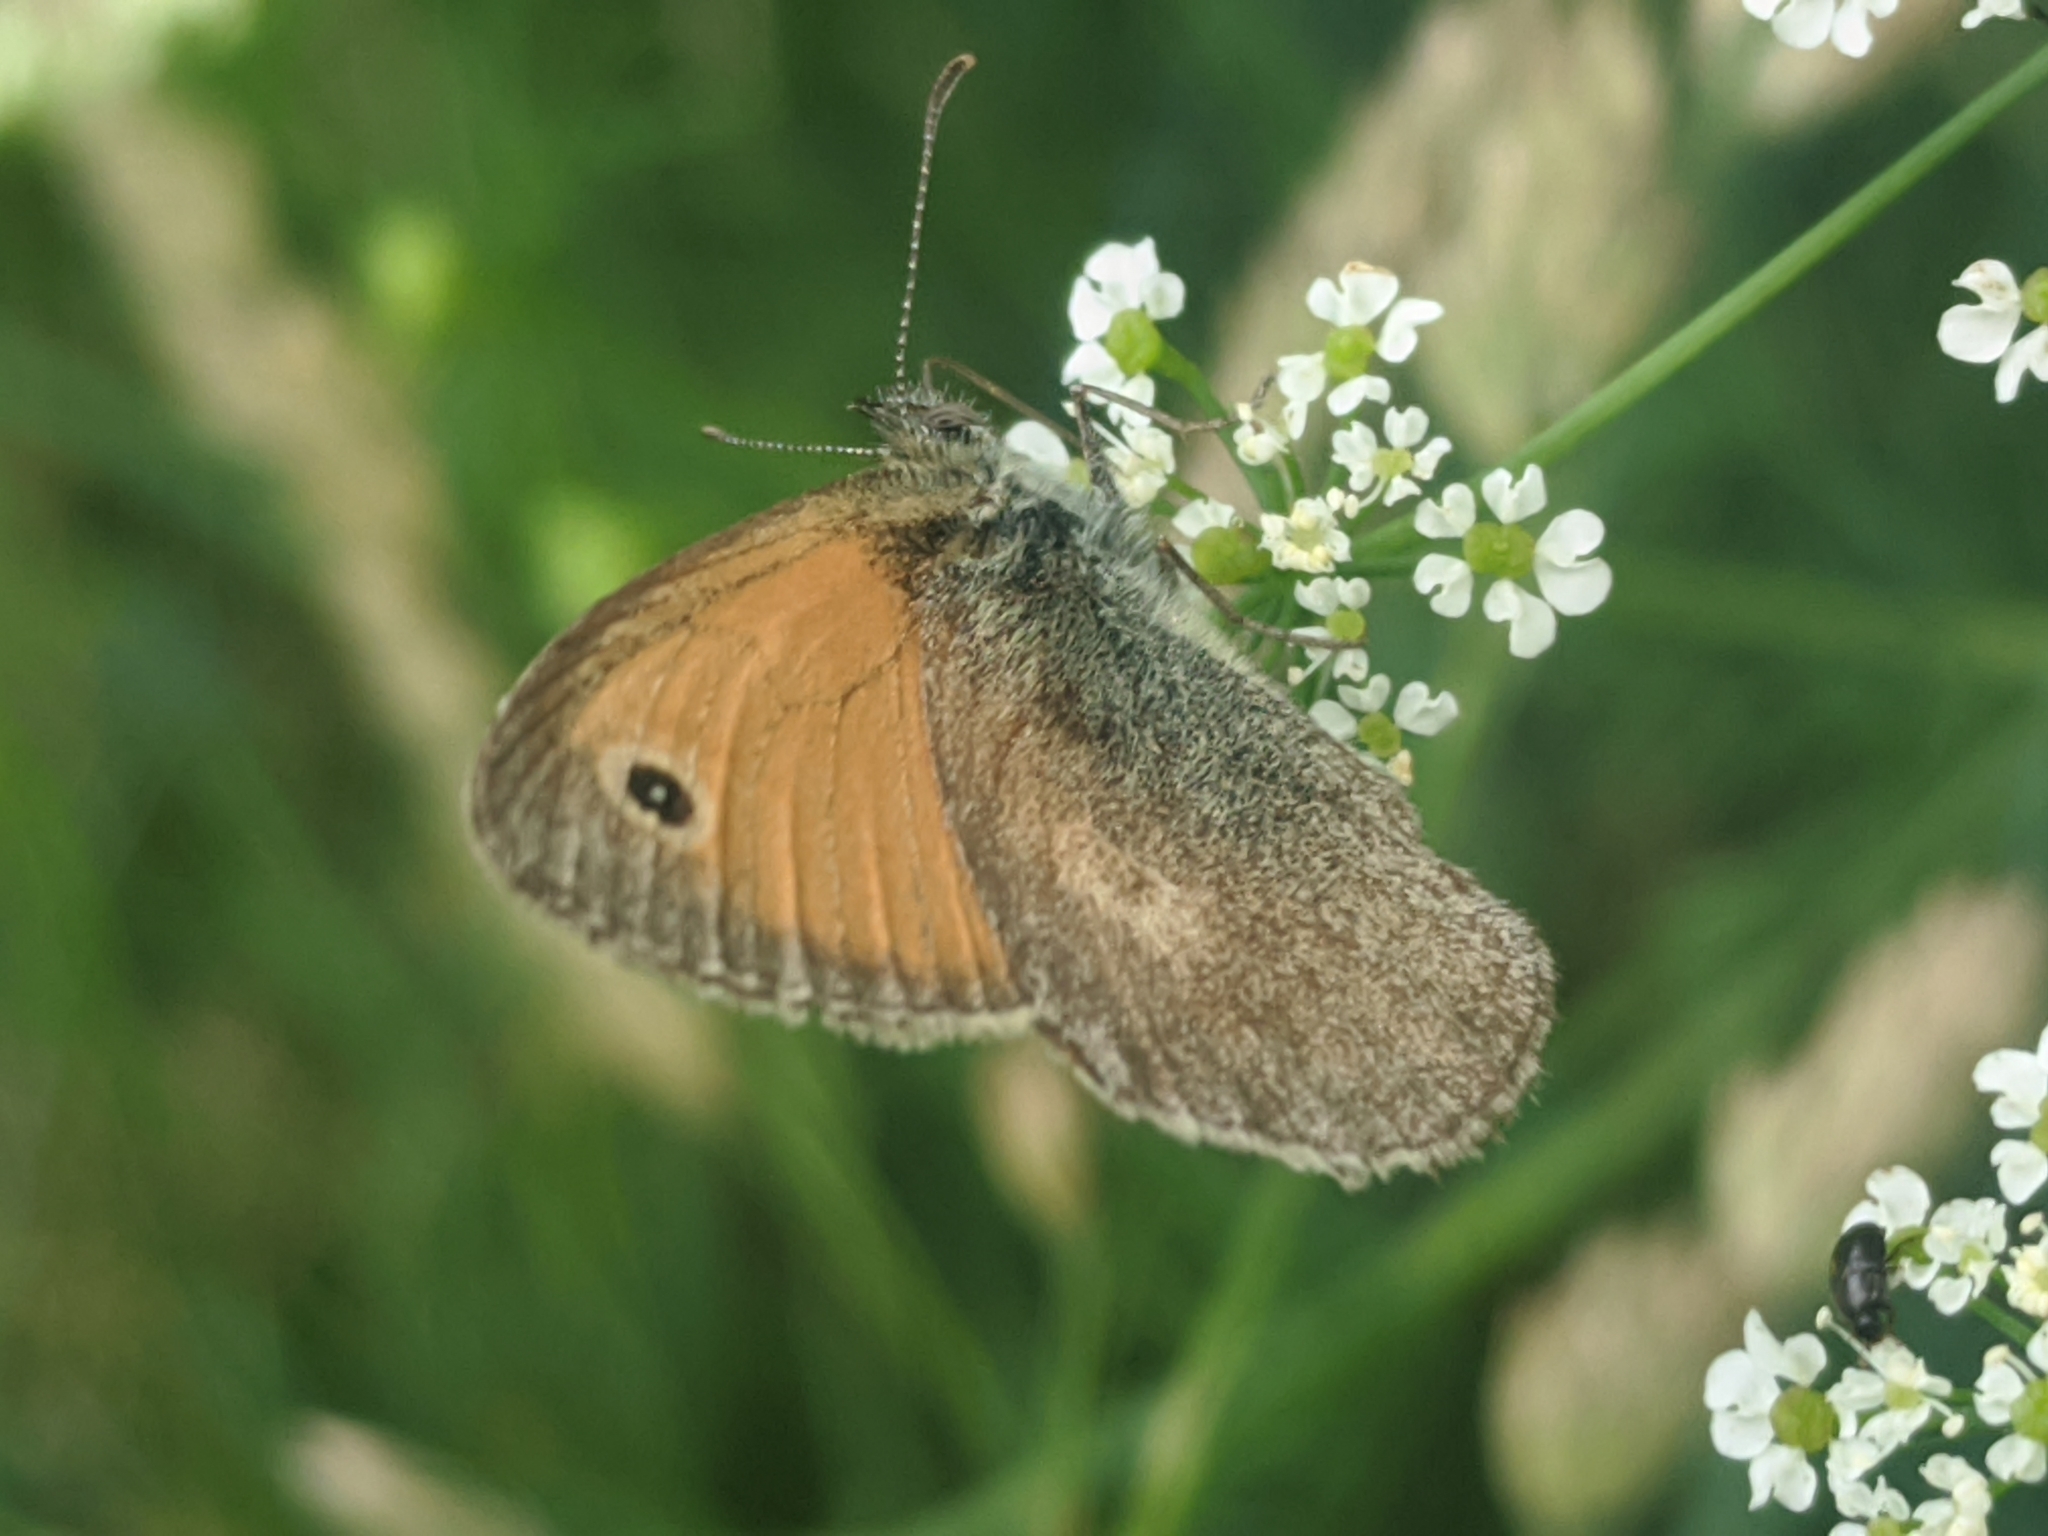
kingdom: Animalia
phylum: Arthropoda
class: Insecta
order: Lepidoptera
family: Nymphalidae
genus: Coenonympha
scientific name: Coenonympha pamphilus
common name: Small heath
